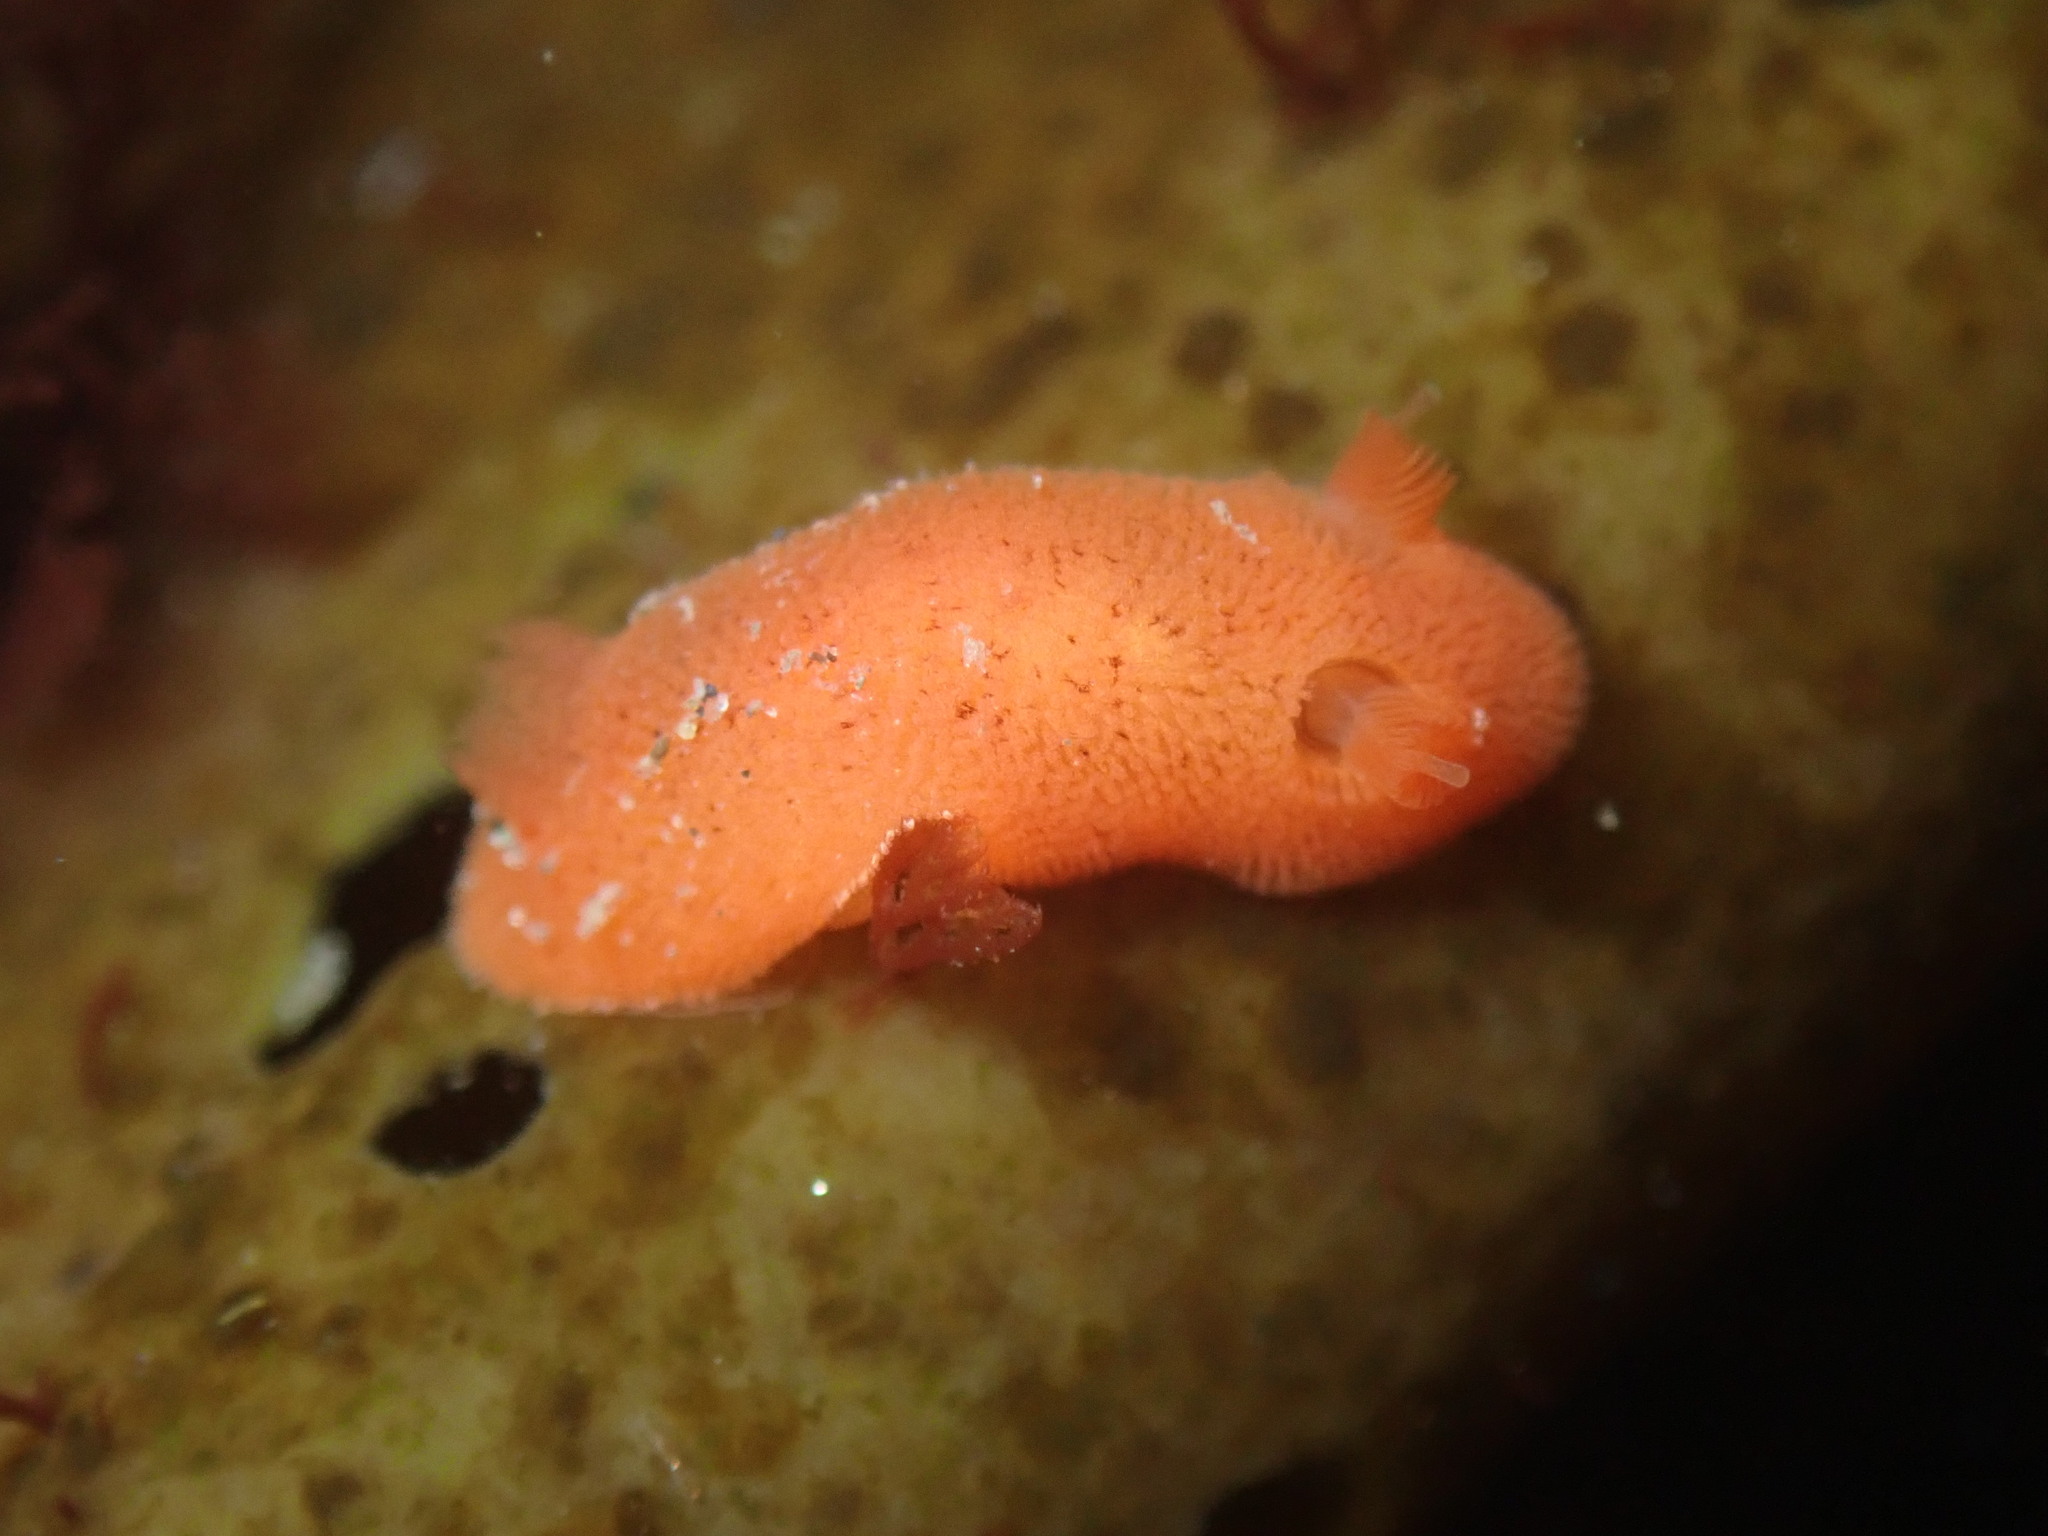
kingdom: Animalia
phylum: Mollusca
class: Gastropoda
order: Nudibranchia
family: Discodorididae
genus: Rostanga
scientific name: Rostanga pulchra
